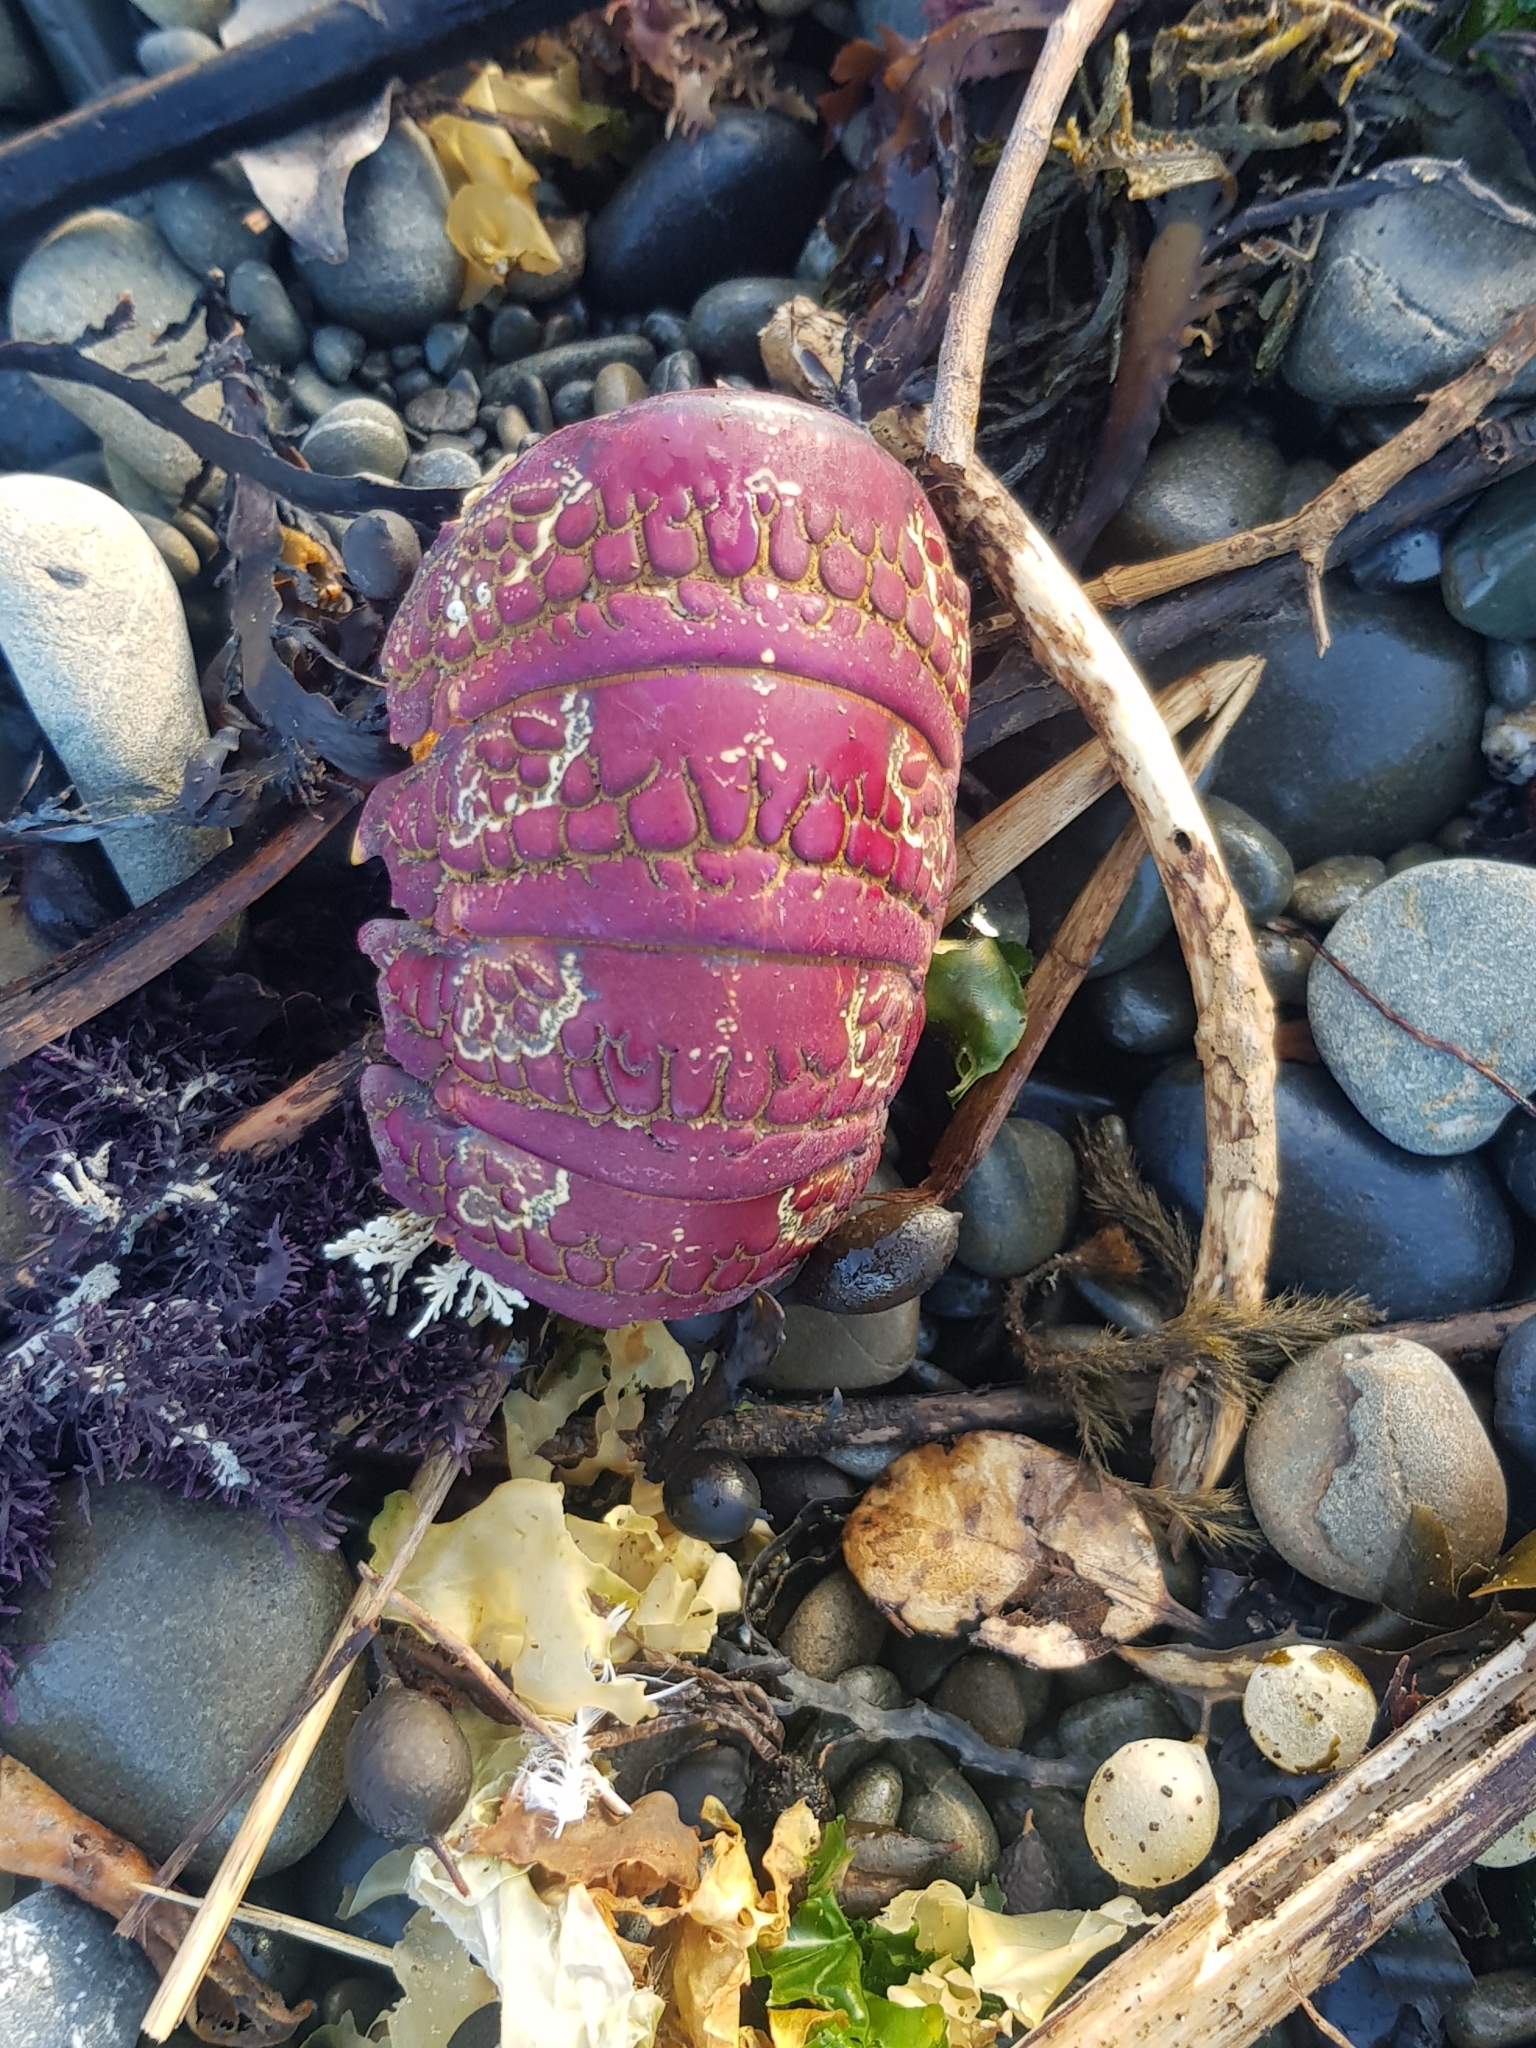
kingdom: Animalia
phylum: Arthropoda
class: Malacostraca
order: Decapoda
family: Palinuridae
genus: Jasus
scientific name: Jasus edwardsii
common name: Red rock lobster
